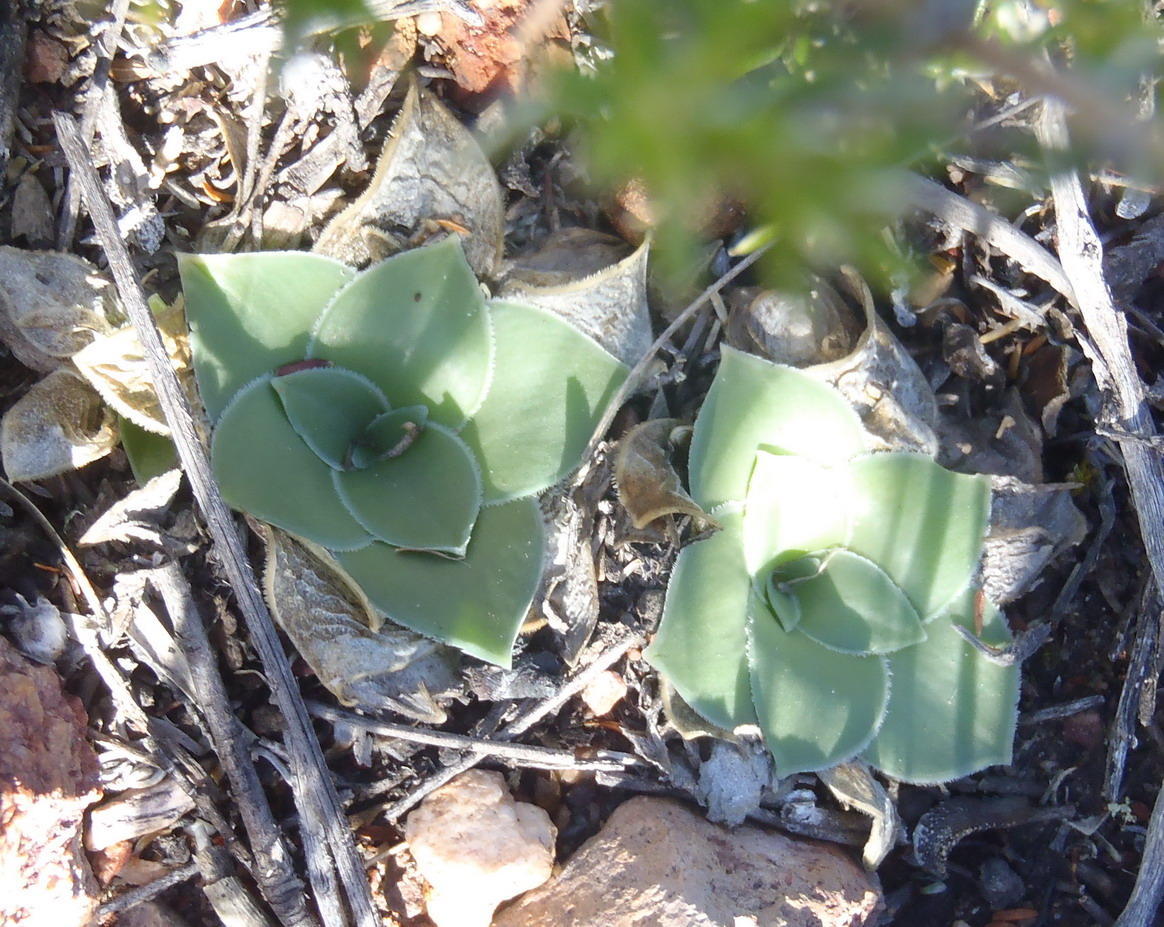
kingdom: Plantae
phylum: Tracheophyta
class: Liliopsida
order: Asparagales
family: Asparagaceae
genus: Drimia
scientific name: Drimia ciliata
